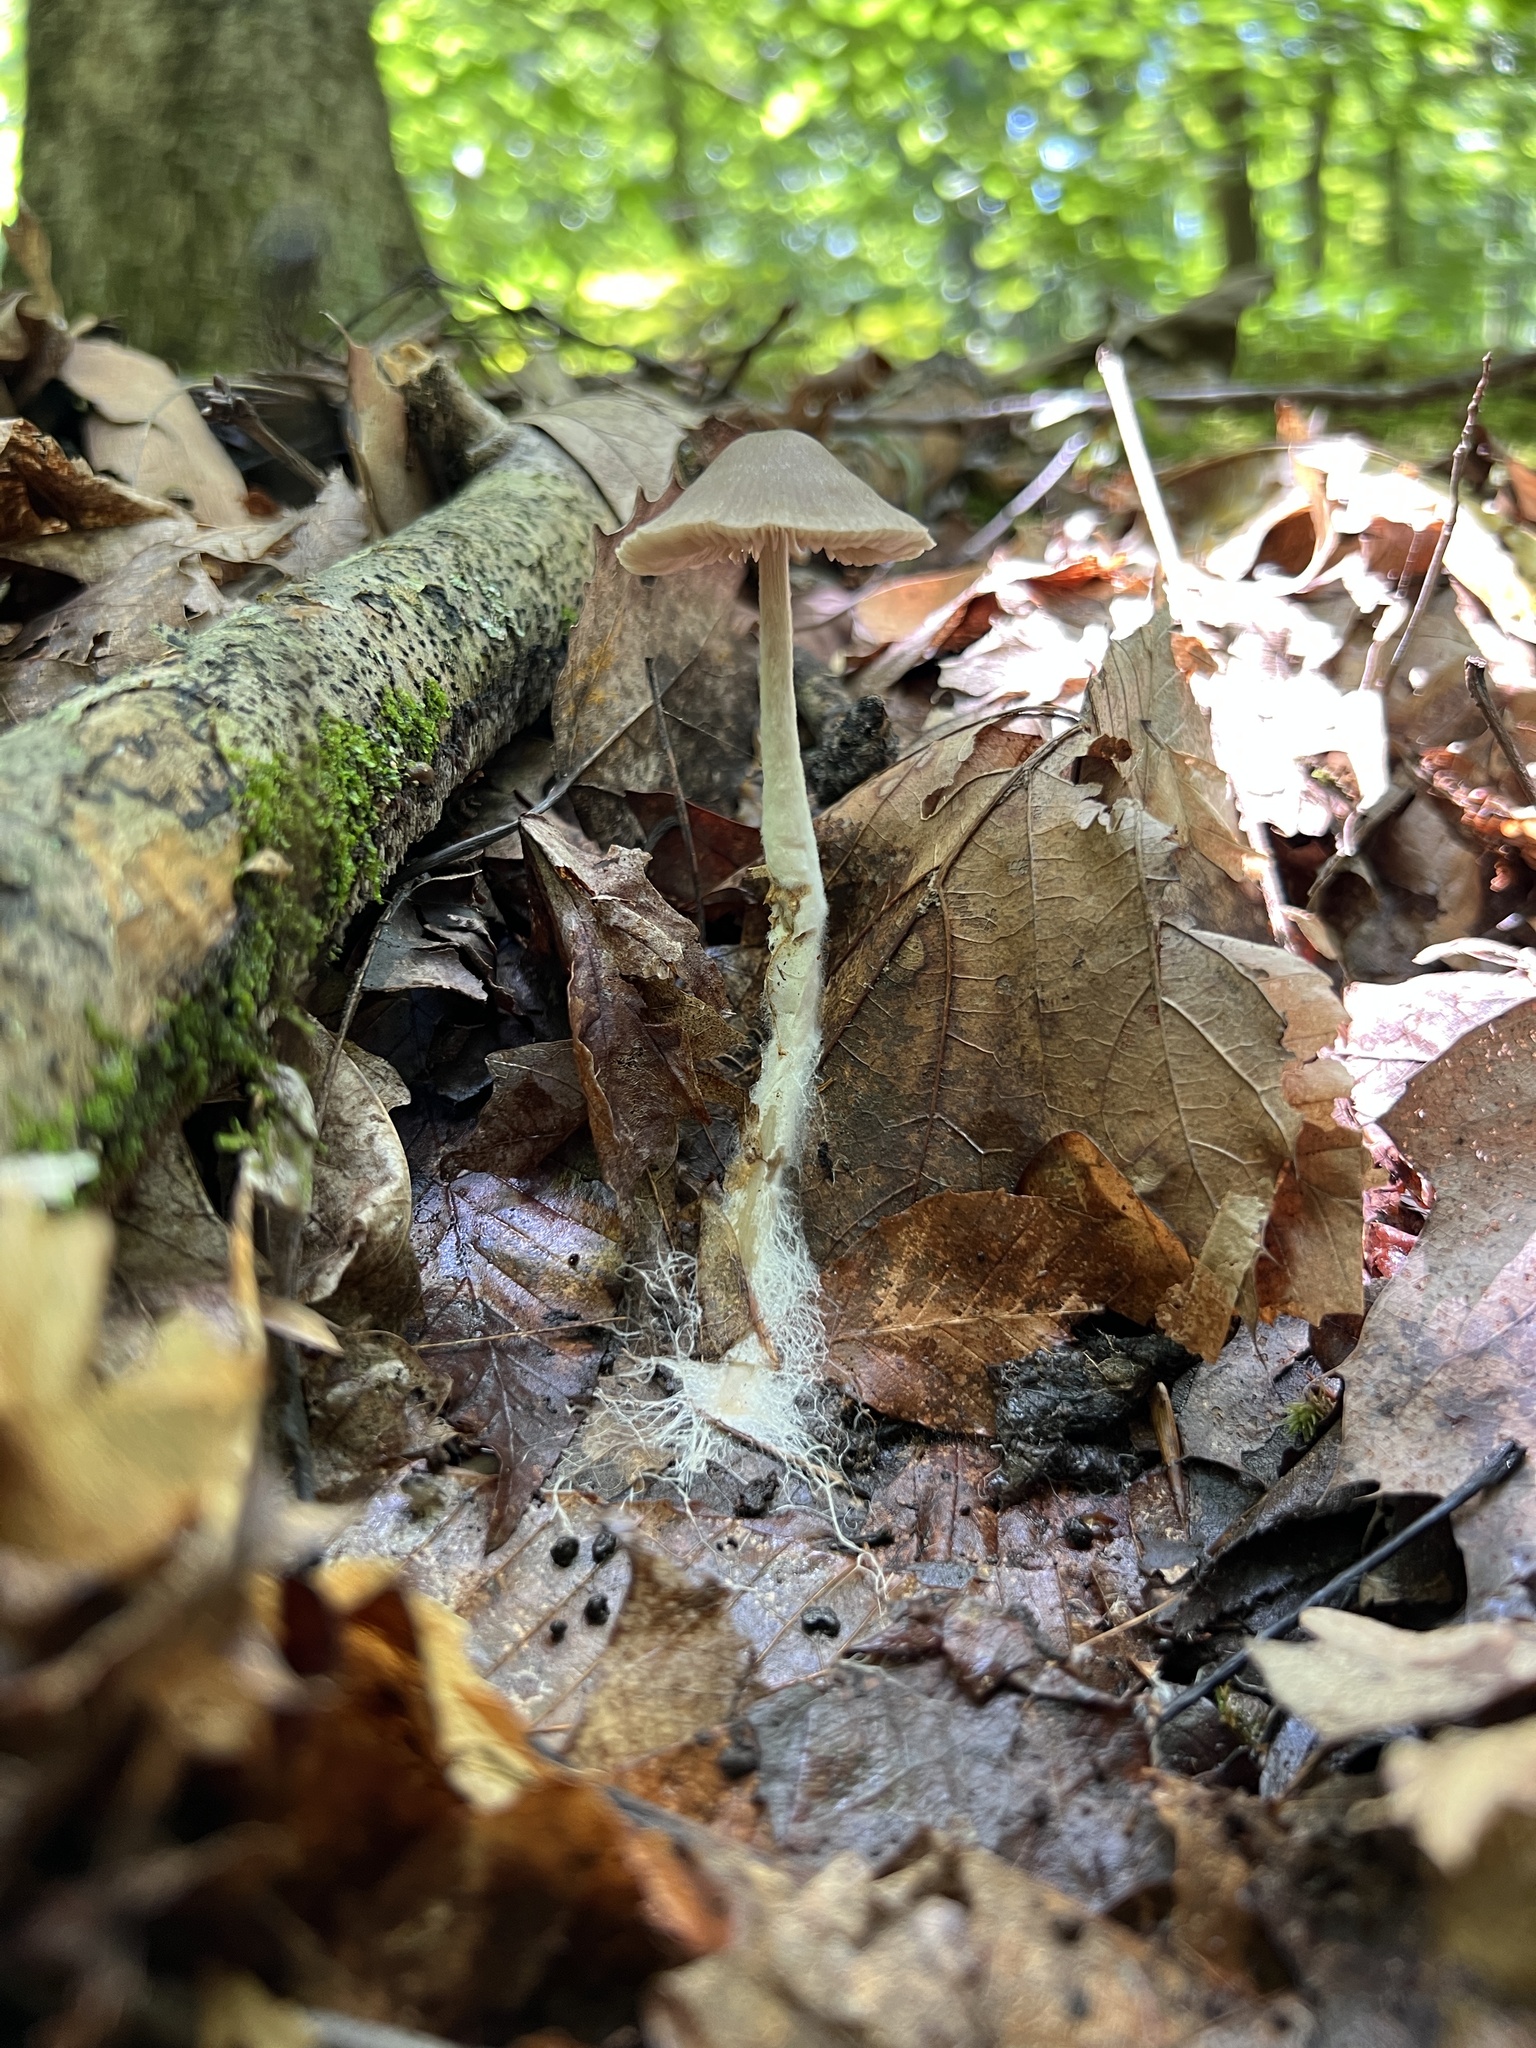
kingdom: Fungi
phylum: Basidiomycota
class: Agaricomycetes
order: Agaricales
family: Entolomataceae
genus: Entoloma
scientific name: Entoloma sericeum
